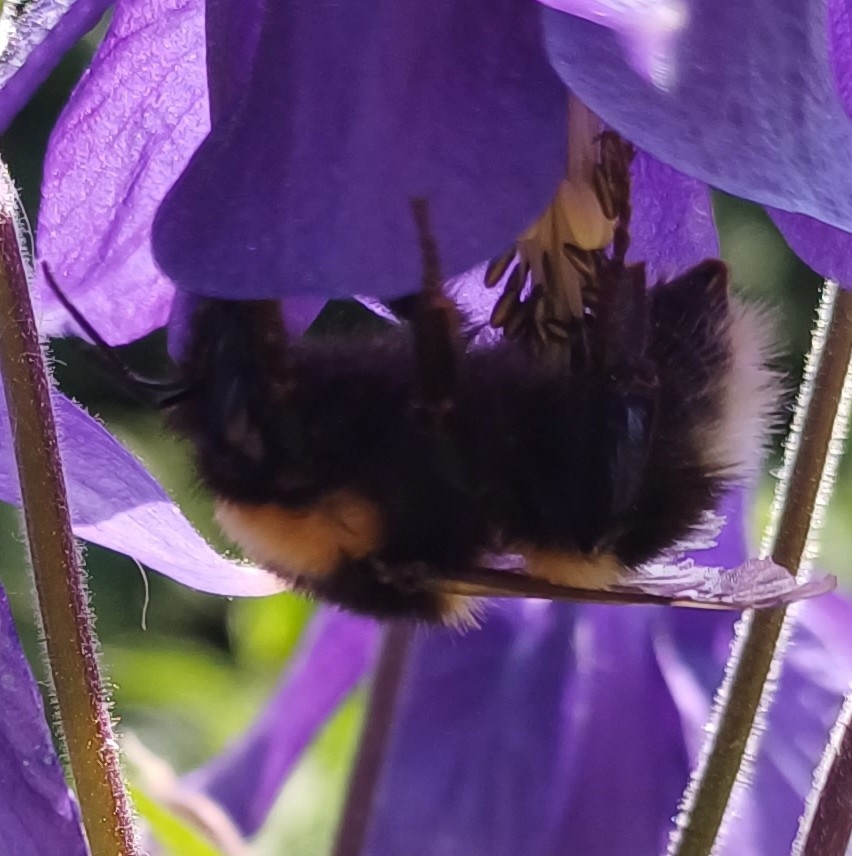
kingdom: Animalia
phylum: Arthropoda
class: Insecta
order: Hymenoptera
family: Apidae
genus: Bombus
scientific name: Bombus hortorum
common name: Garden bumblebee
